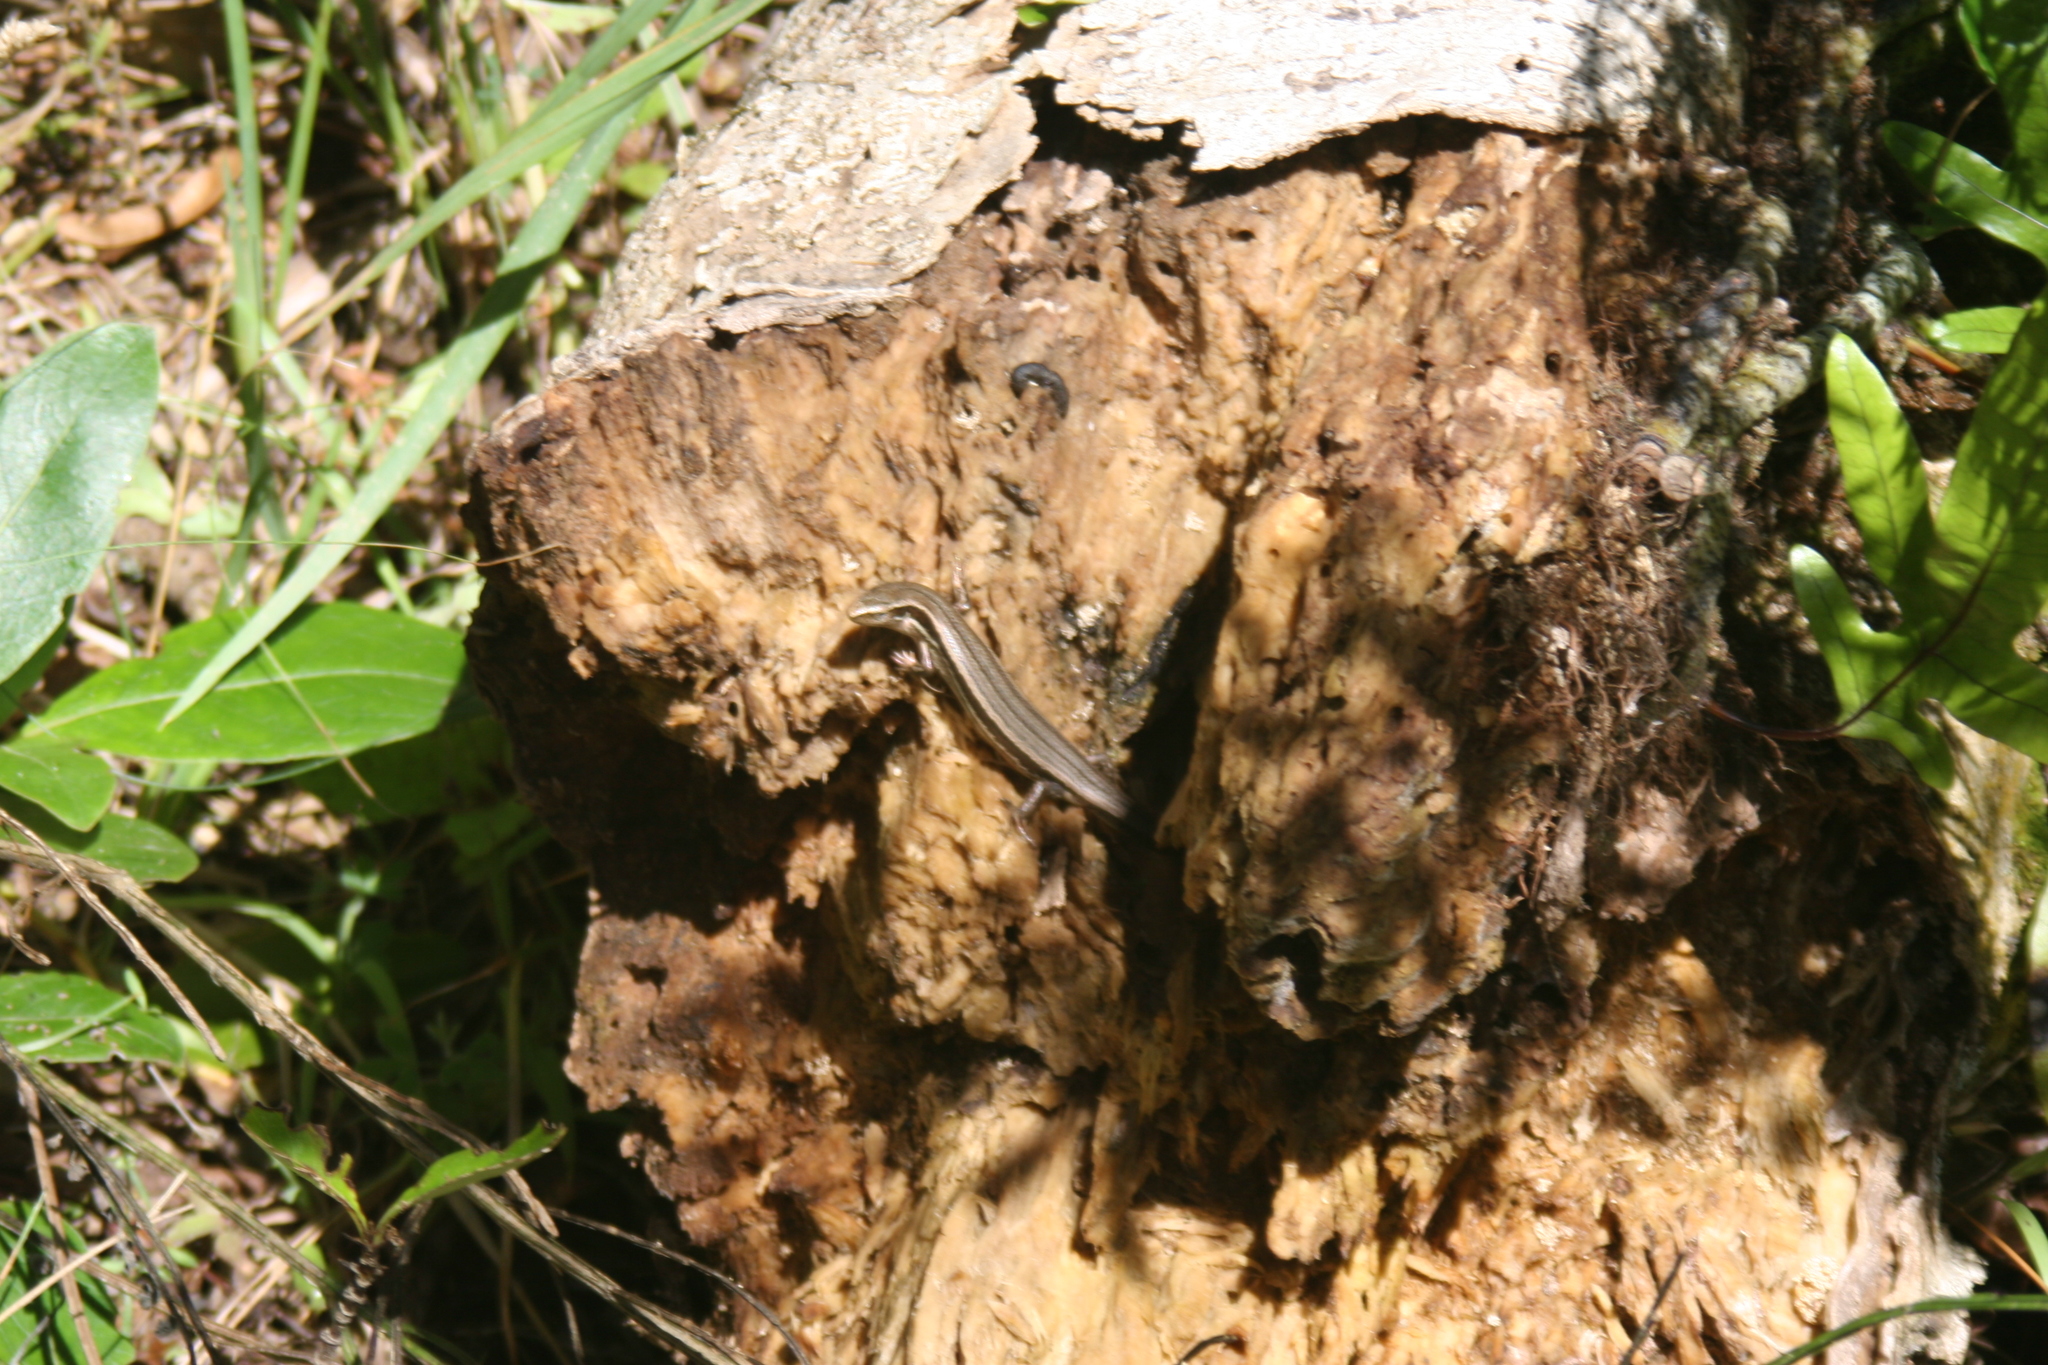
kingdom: Animalia
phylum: Chordata
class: Squamata
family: Scincidae
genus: Oligosoma
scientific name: Oligosoma polychroma
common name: Common new zealand skink
